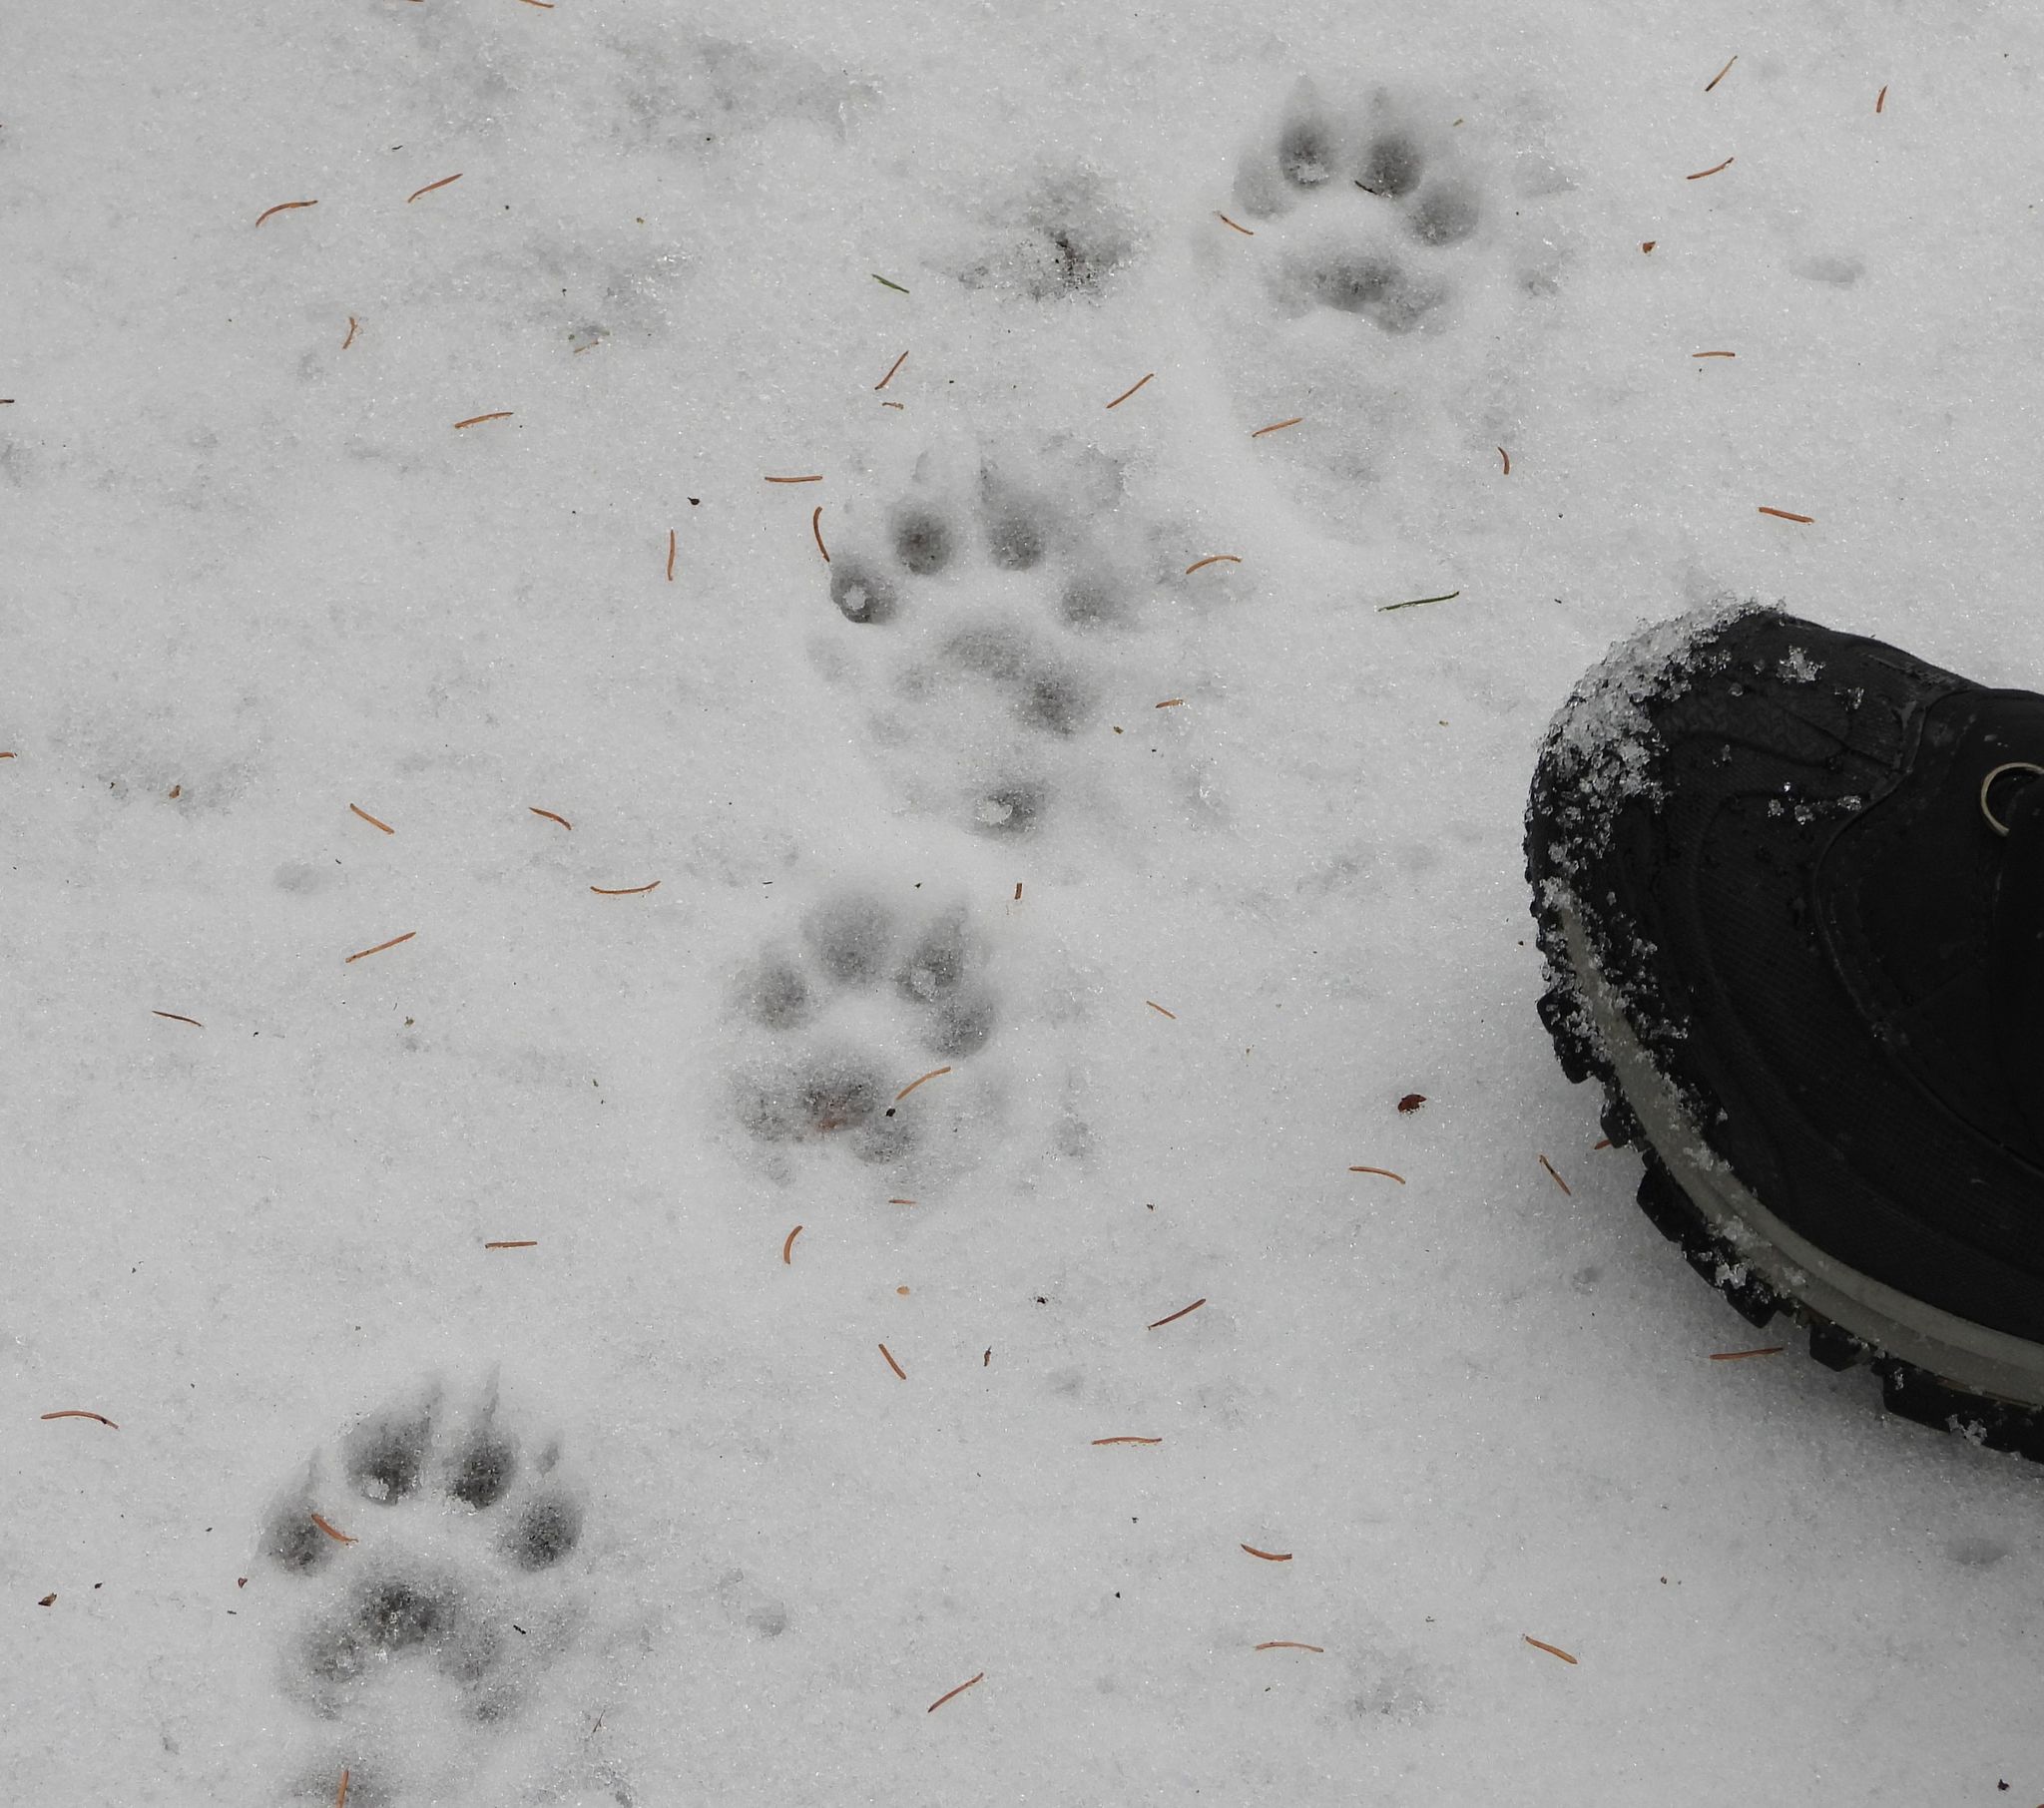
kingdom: Animalia
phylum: Chordata
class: Mammalia
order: Carnivora
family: Mustelidae
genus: Pekania
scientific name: Pekania pennanti
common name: Fisher
